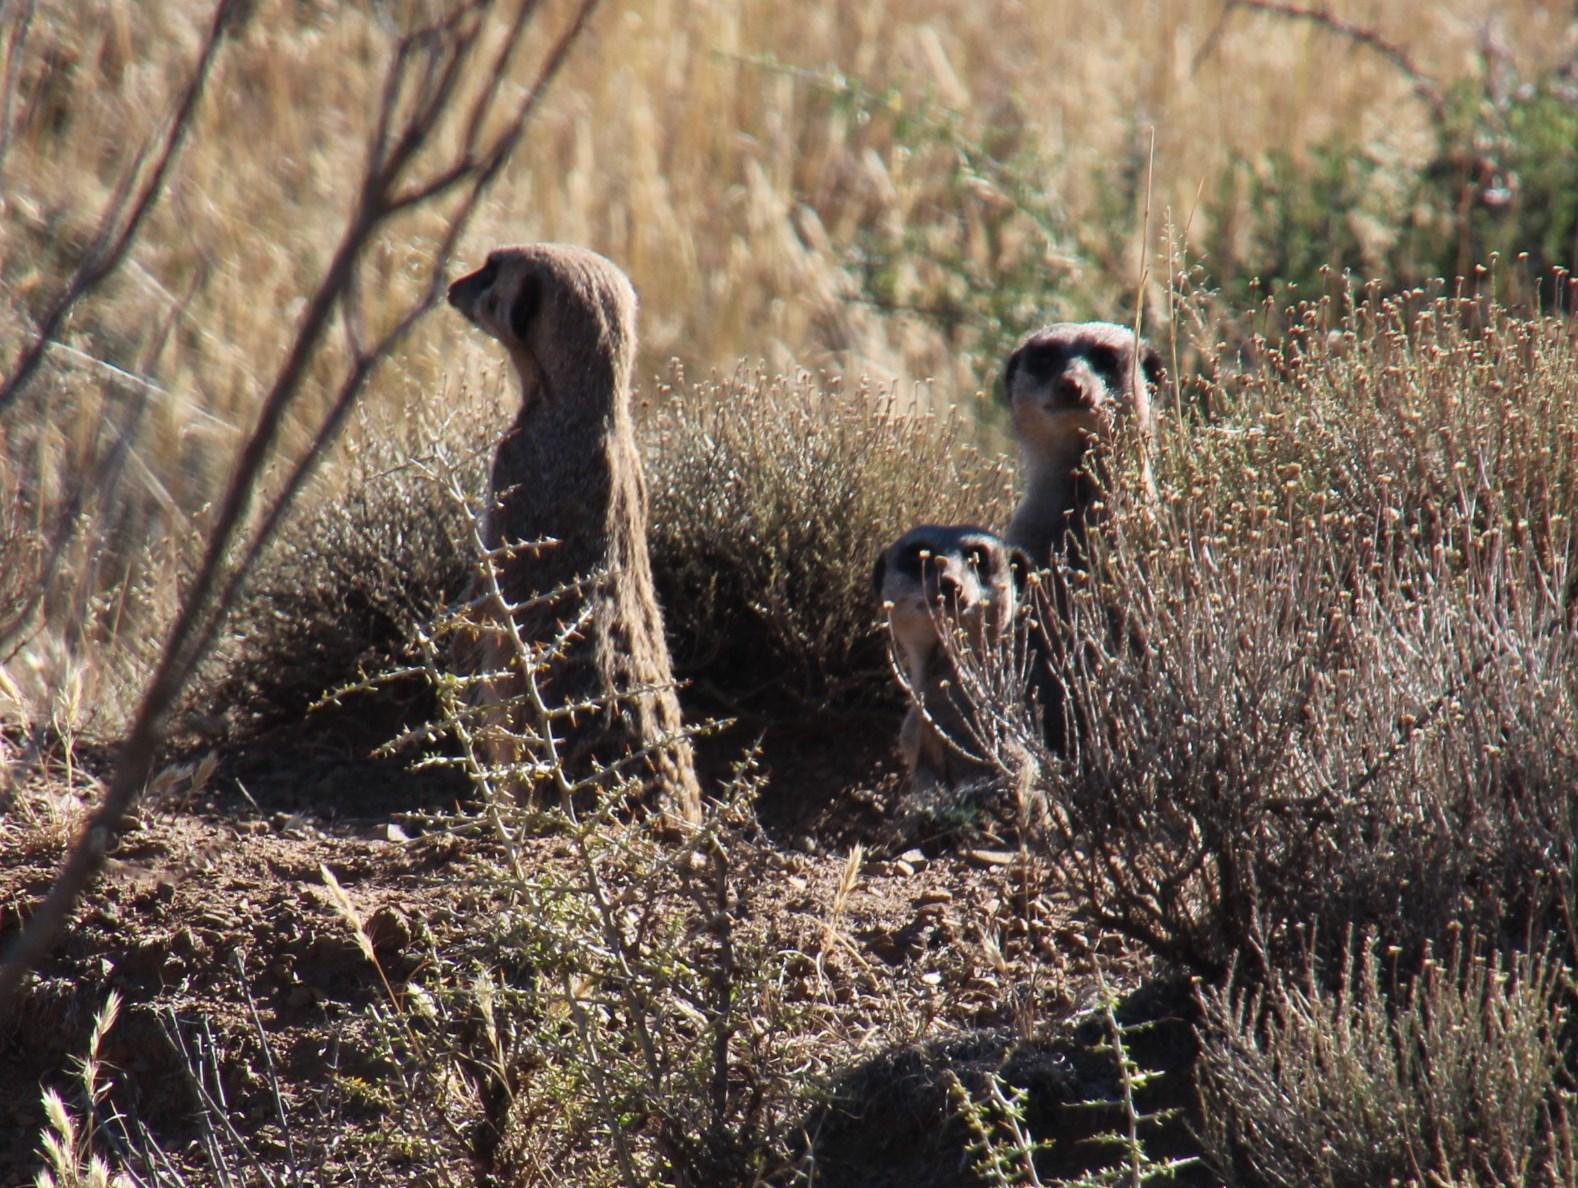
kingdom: Animalia
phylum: Chordata
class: Mammalia
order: Carnivora
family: Herpestidae
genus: Suricata
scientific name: Suricata suricatta
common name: Meerkat
